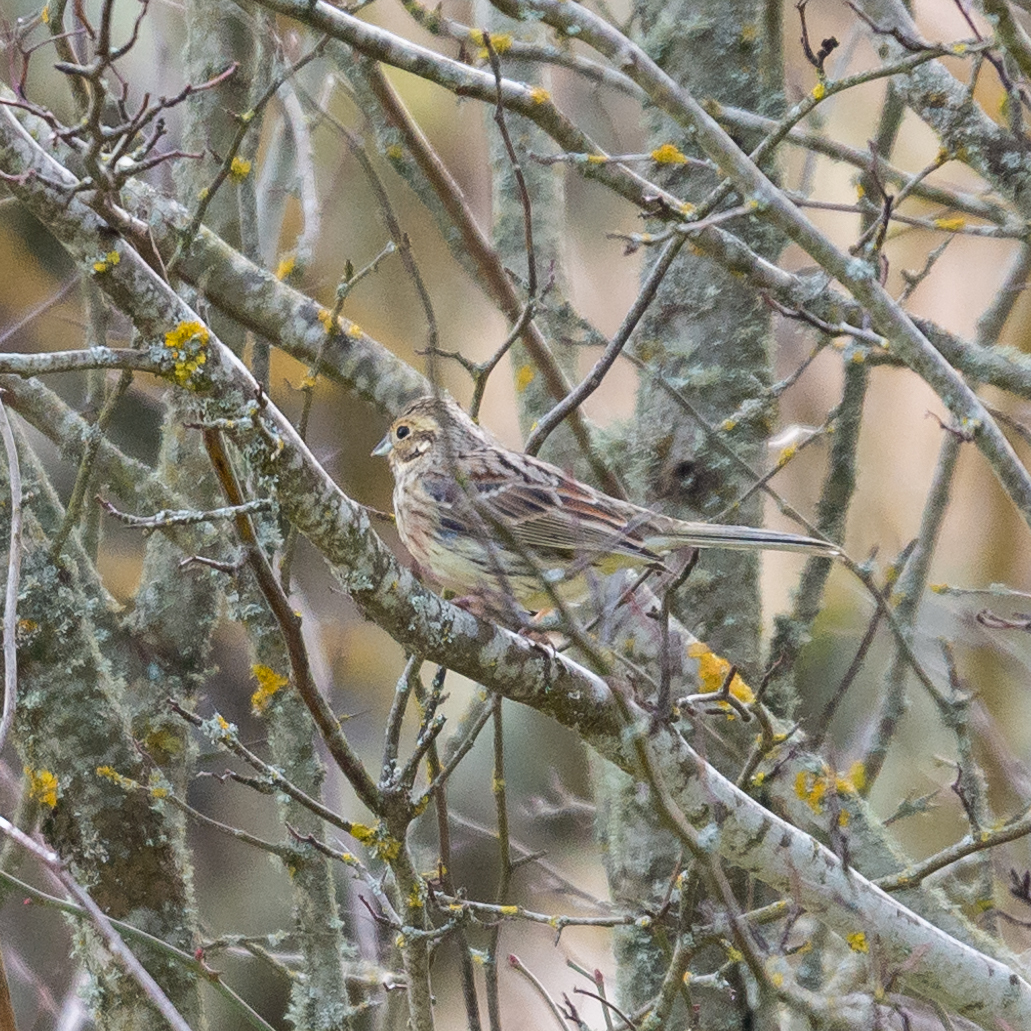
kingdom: Animalia
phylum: Chordata
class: Aves
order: Passeriformes
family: Emberizidae
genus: Emberiza
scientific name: Emberiza cirlus
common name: Cirl bunting
